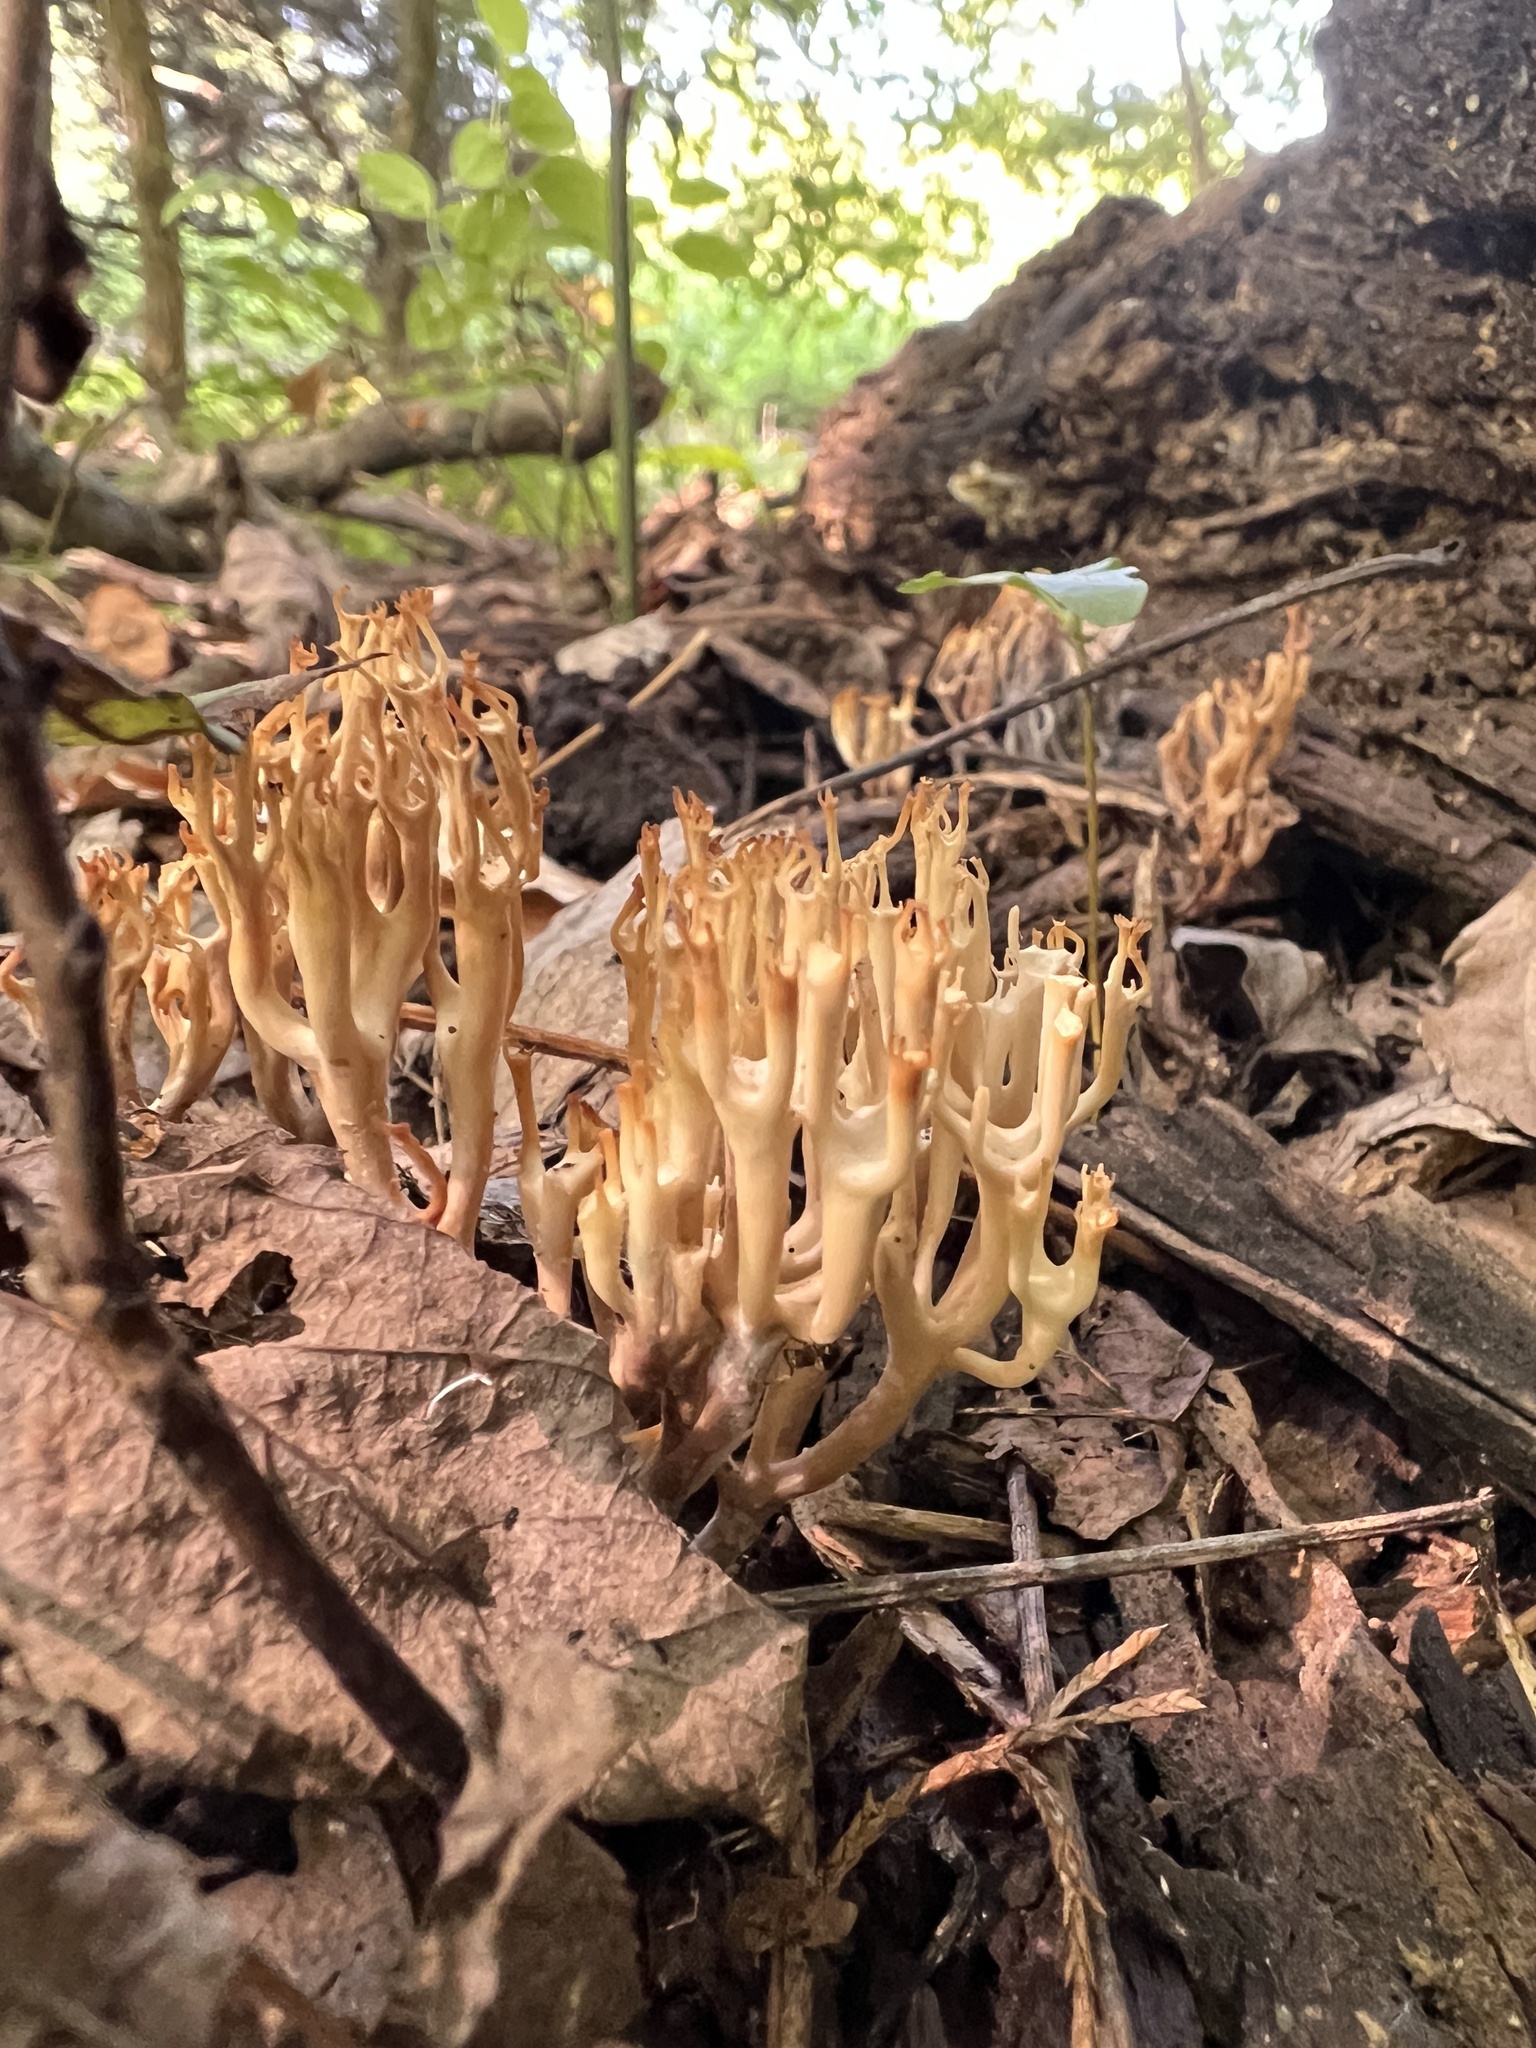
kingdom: Fungi
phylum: Basidiomycota
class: Agaricomycetes
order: Russulales
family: Auriscalpiaceae
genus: Artomyces
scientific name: Artomyces pyxidatus
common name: Crown-tipped coral fungus
